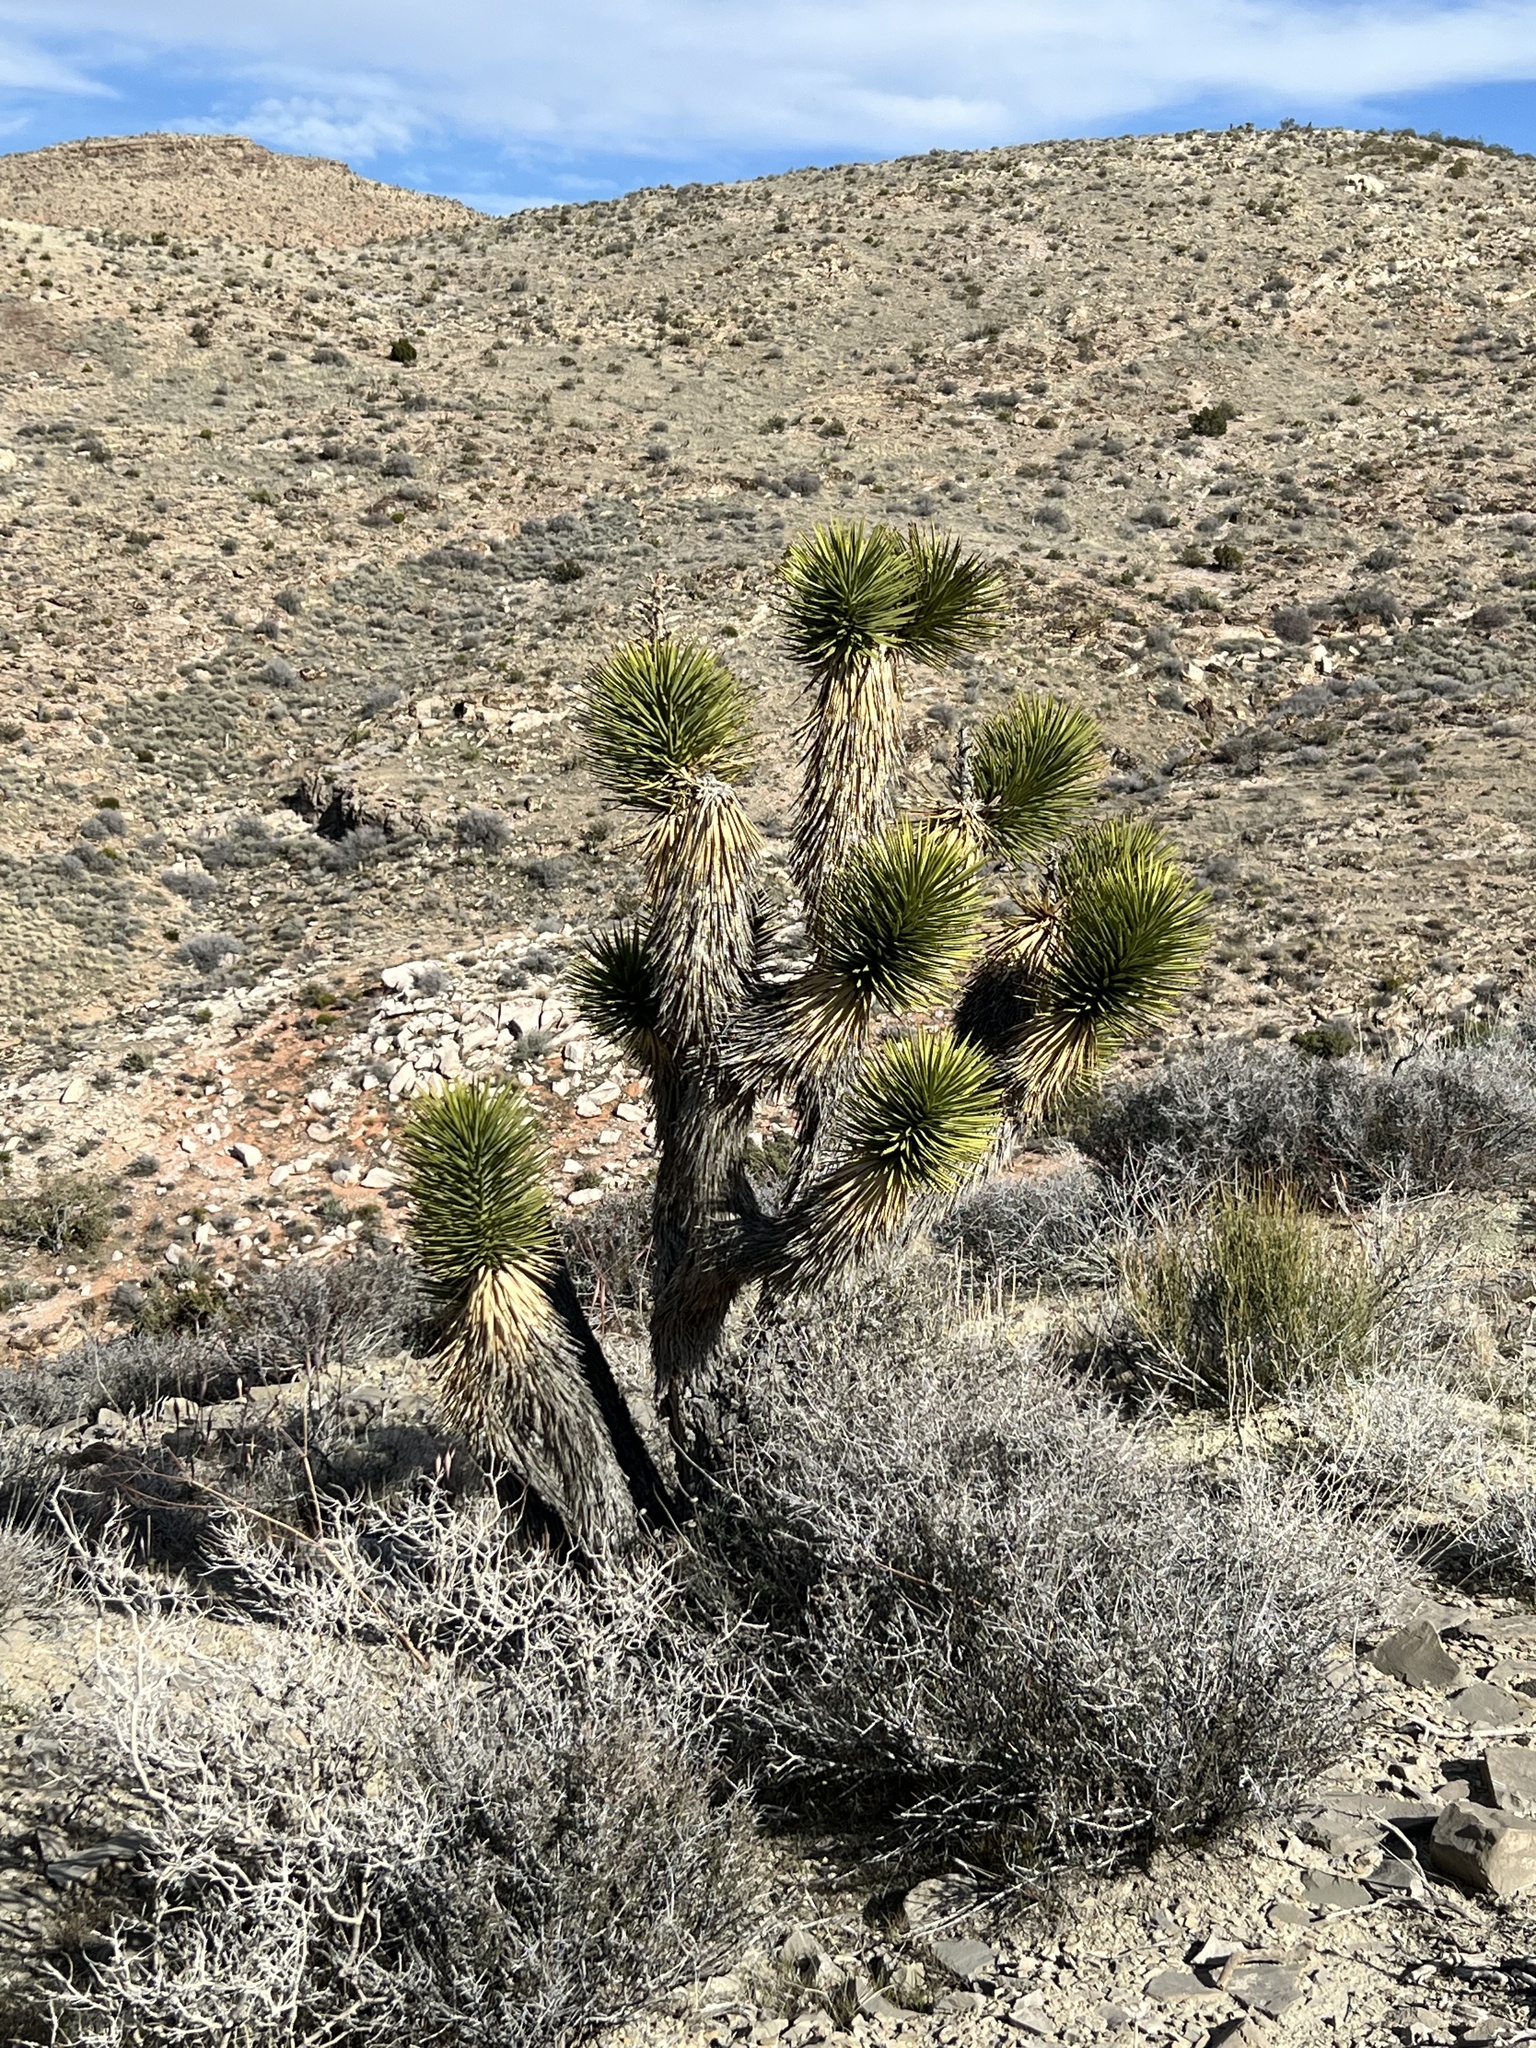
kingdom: Plantae
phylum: Tracheophyta
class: Liliopsida
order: Asparagales
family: Asparagaceae
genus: Yucca
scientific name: Yucca brevifolia
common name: Joshua tree
